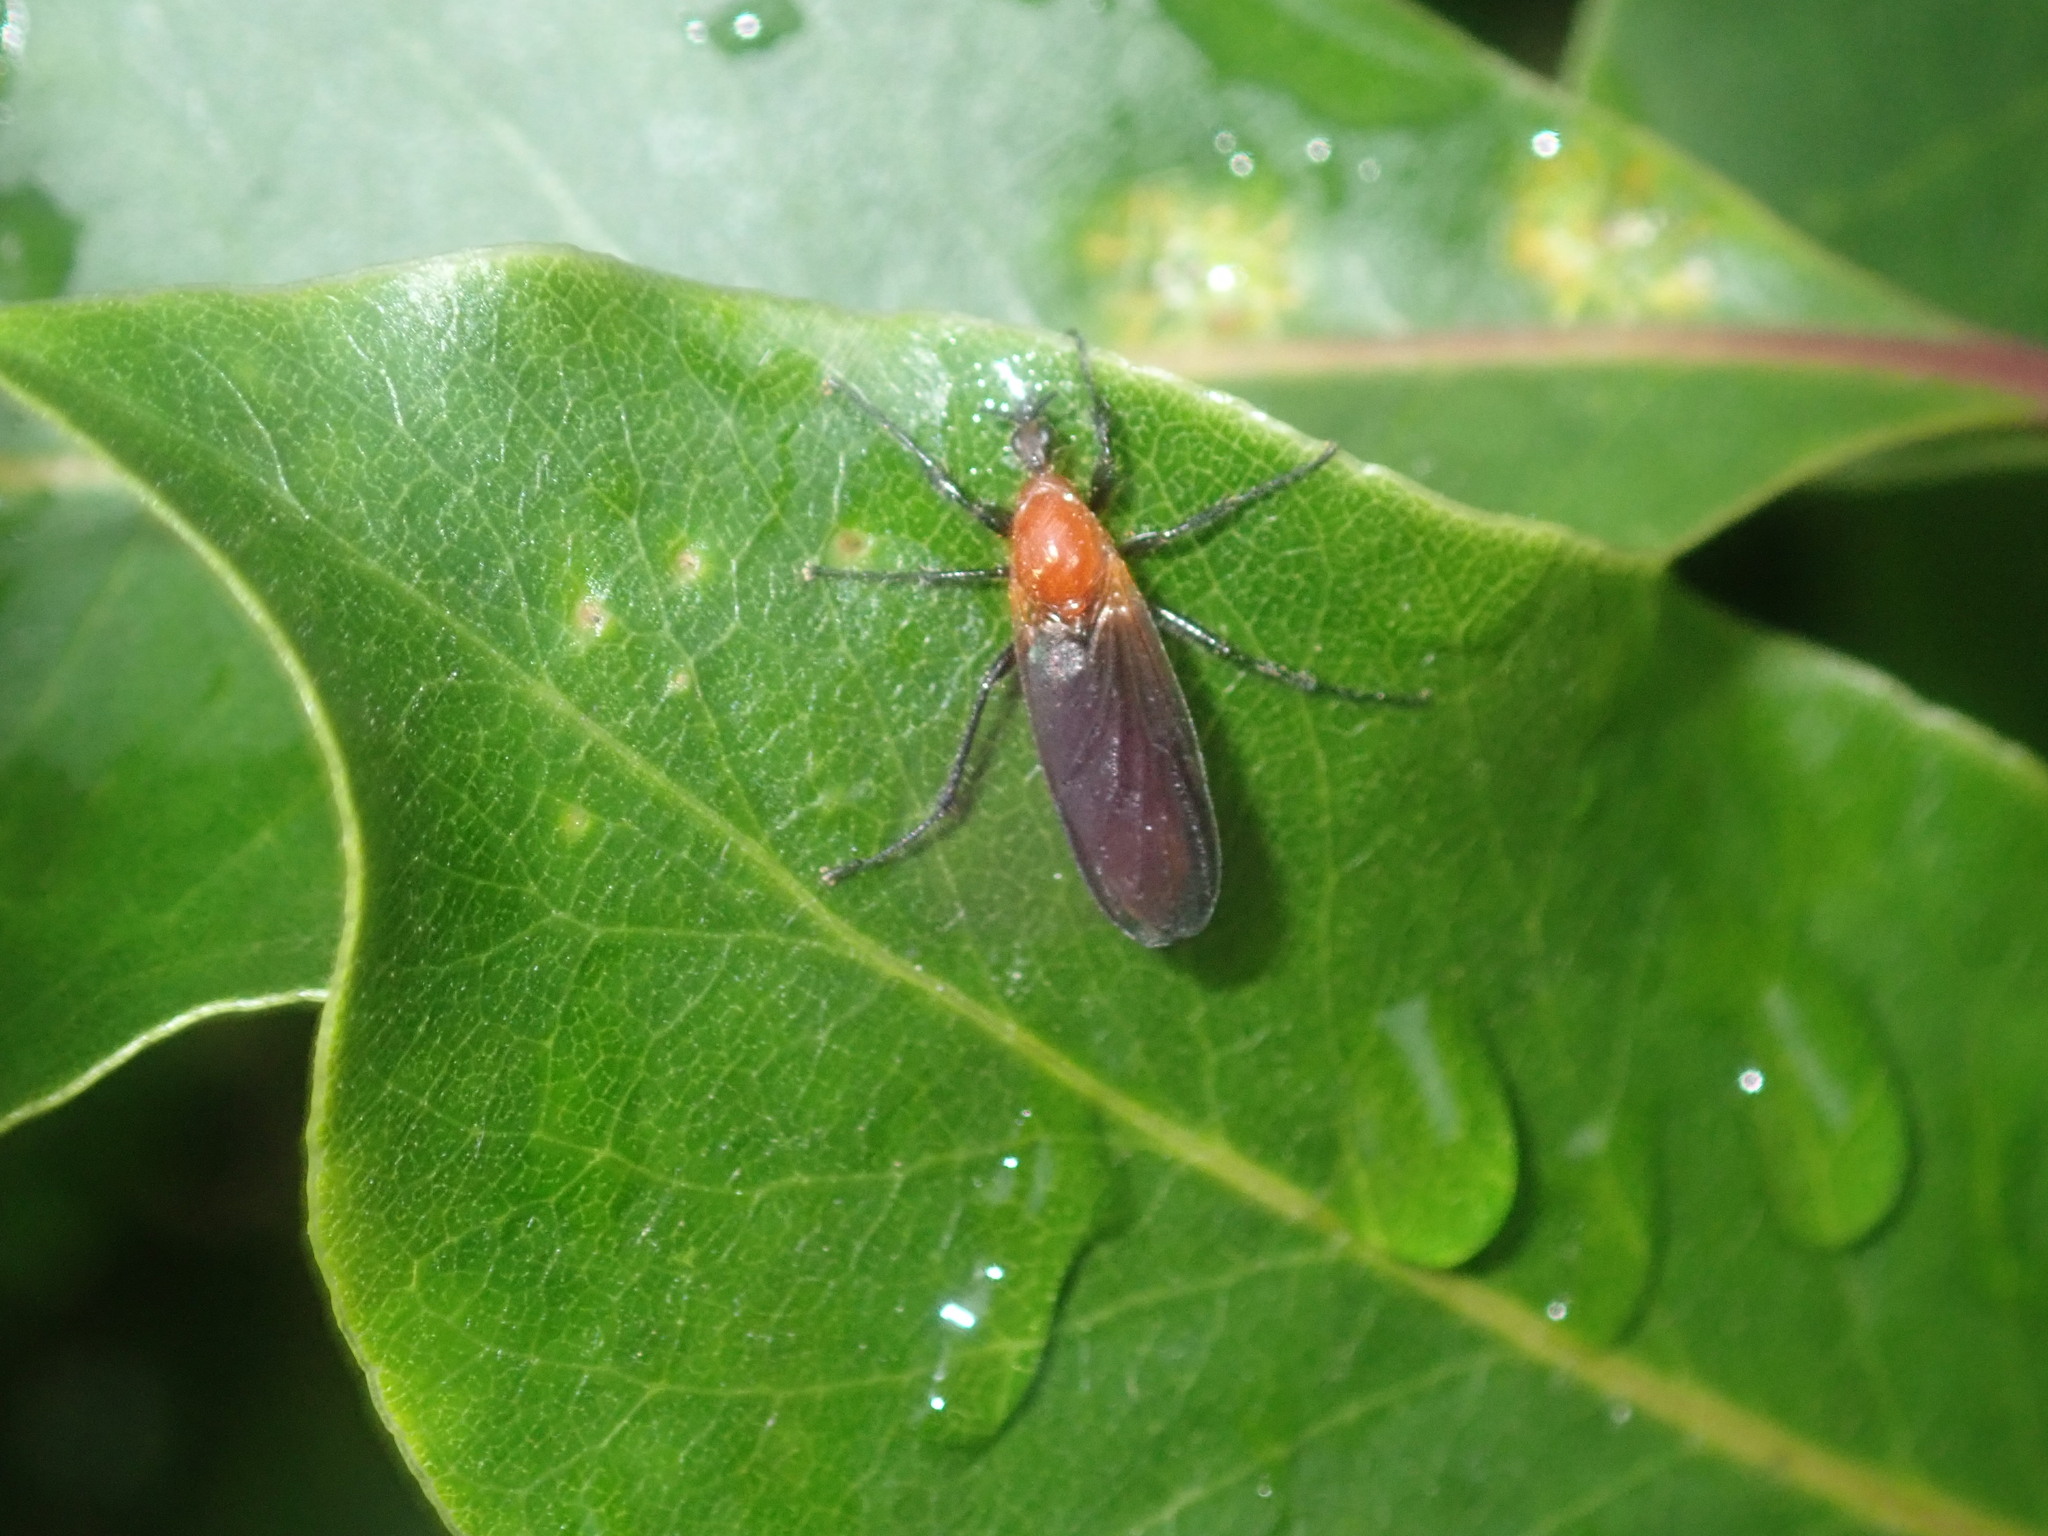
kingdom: Animalia
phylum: Arthropoda
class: Insecta
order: Diptera
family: Bibionidae
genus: Bibio
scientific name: Bibio imitator
